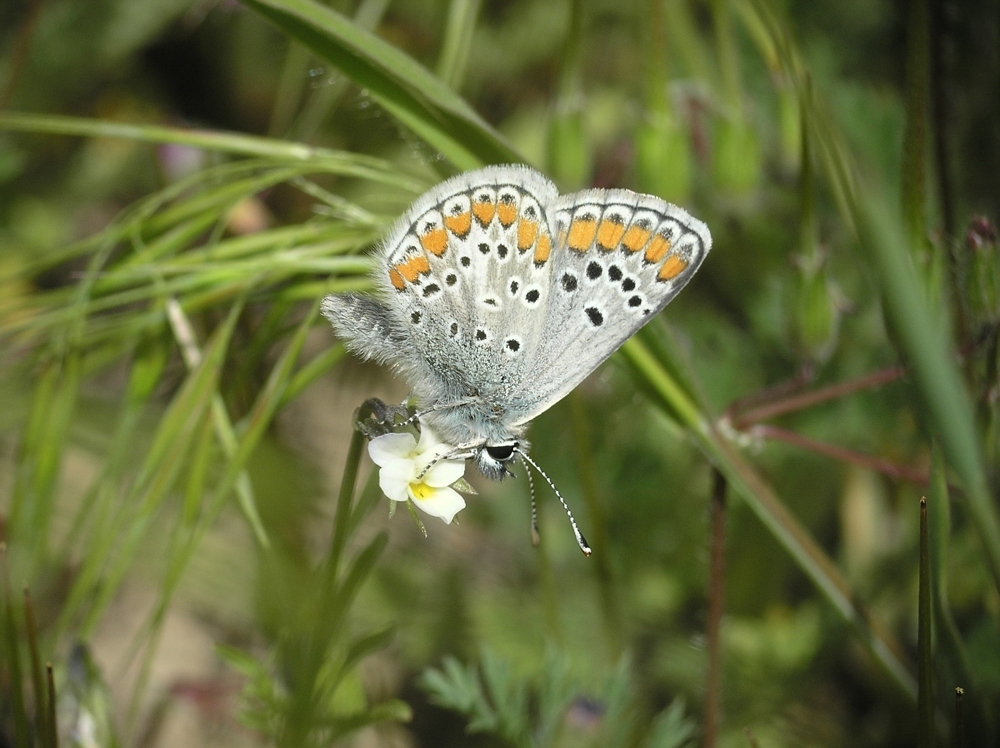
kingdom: Animalia
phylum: Arthropoda
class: Insecta
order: Lepidoptera
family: Lycaenidae
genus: Aricia
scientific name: Aricia agestis
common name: Brown argus
